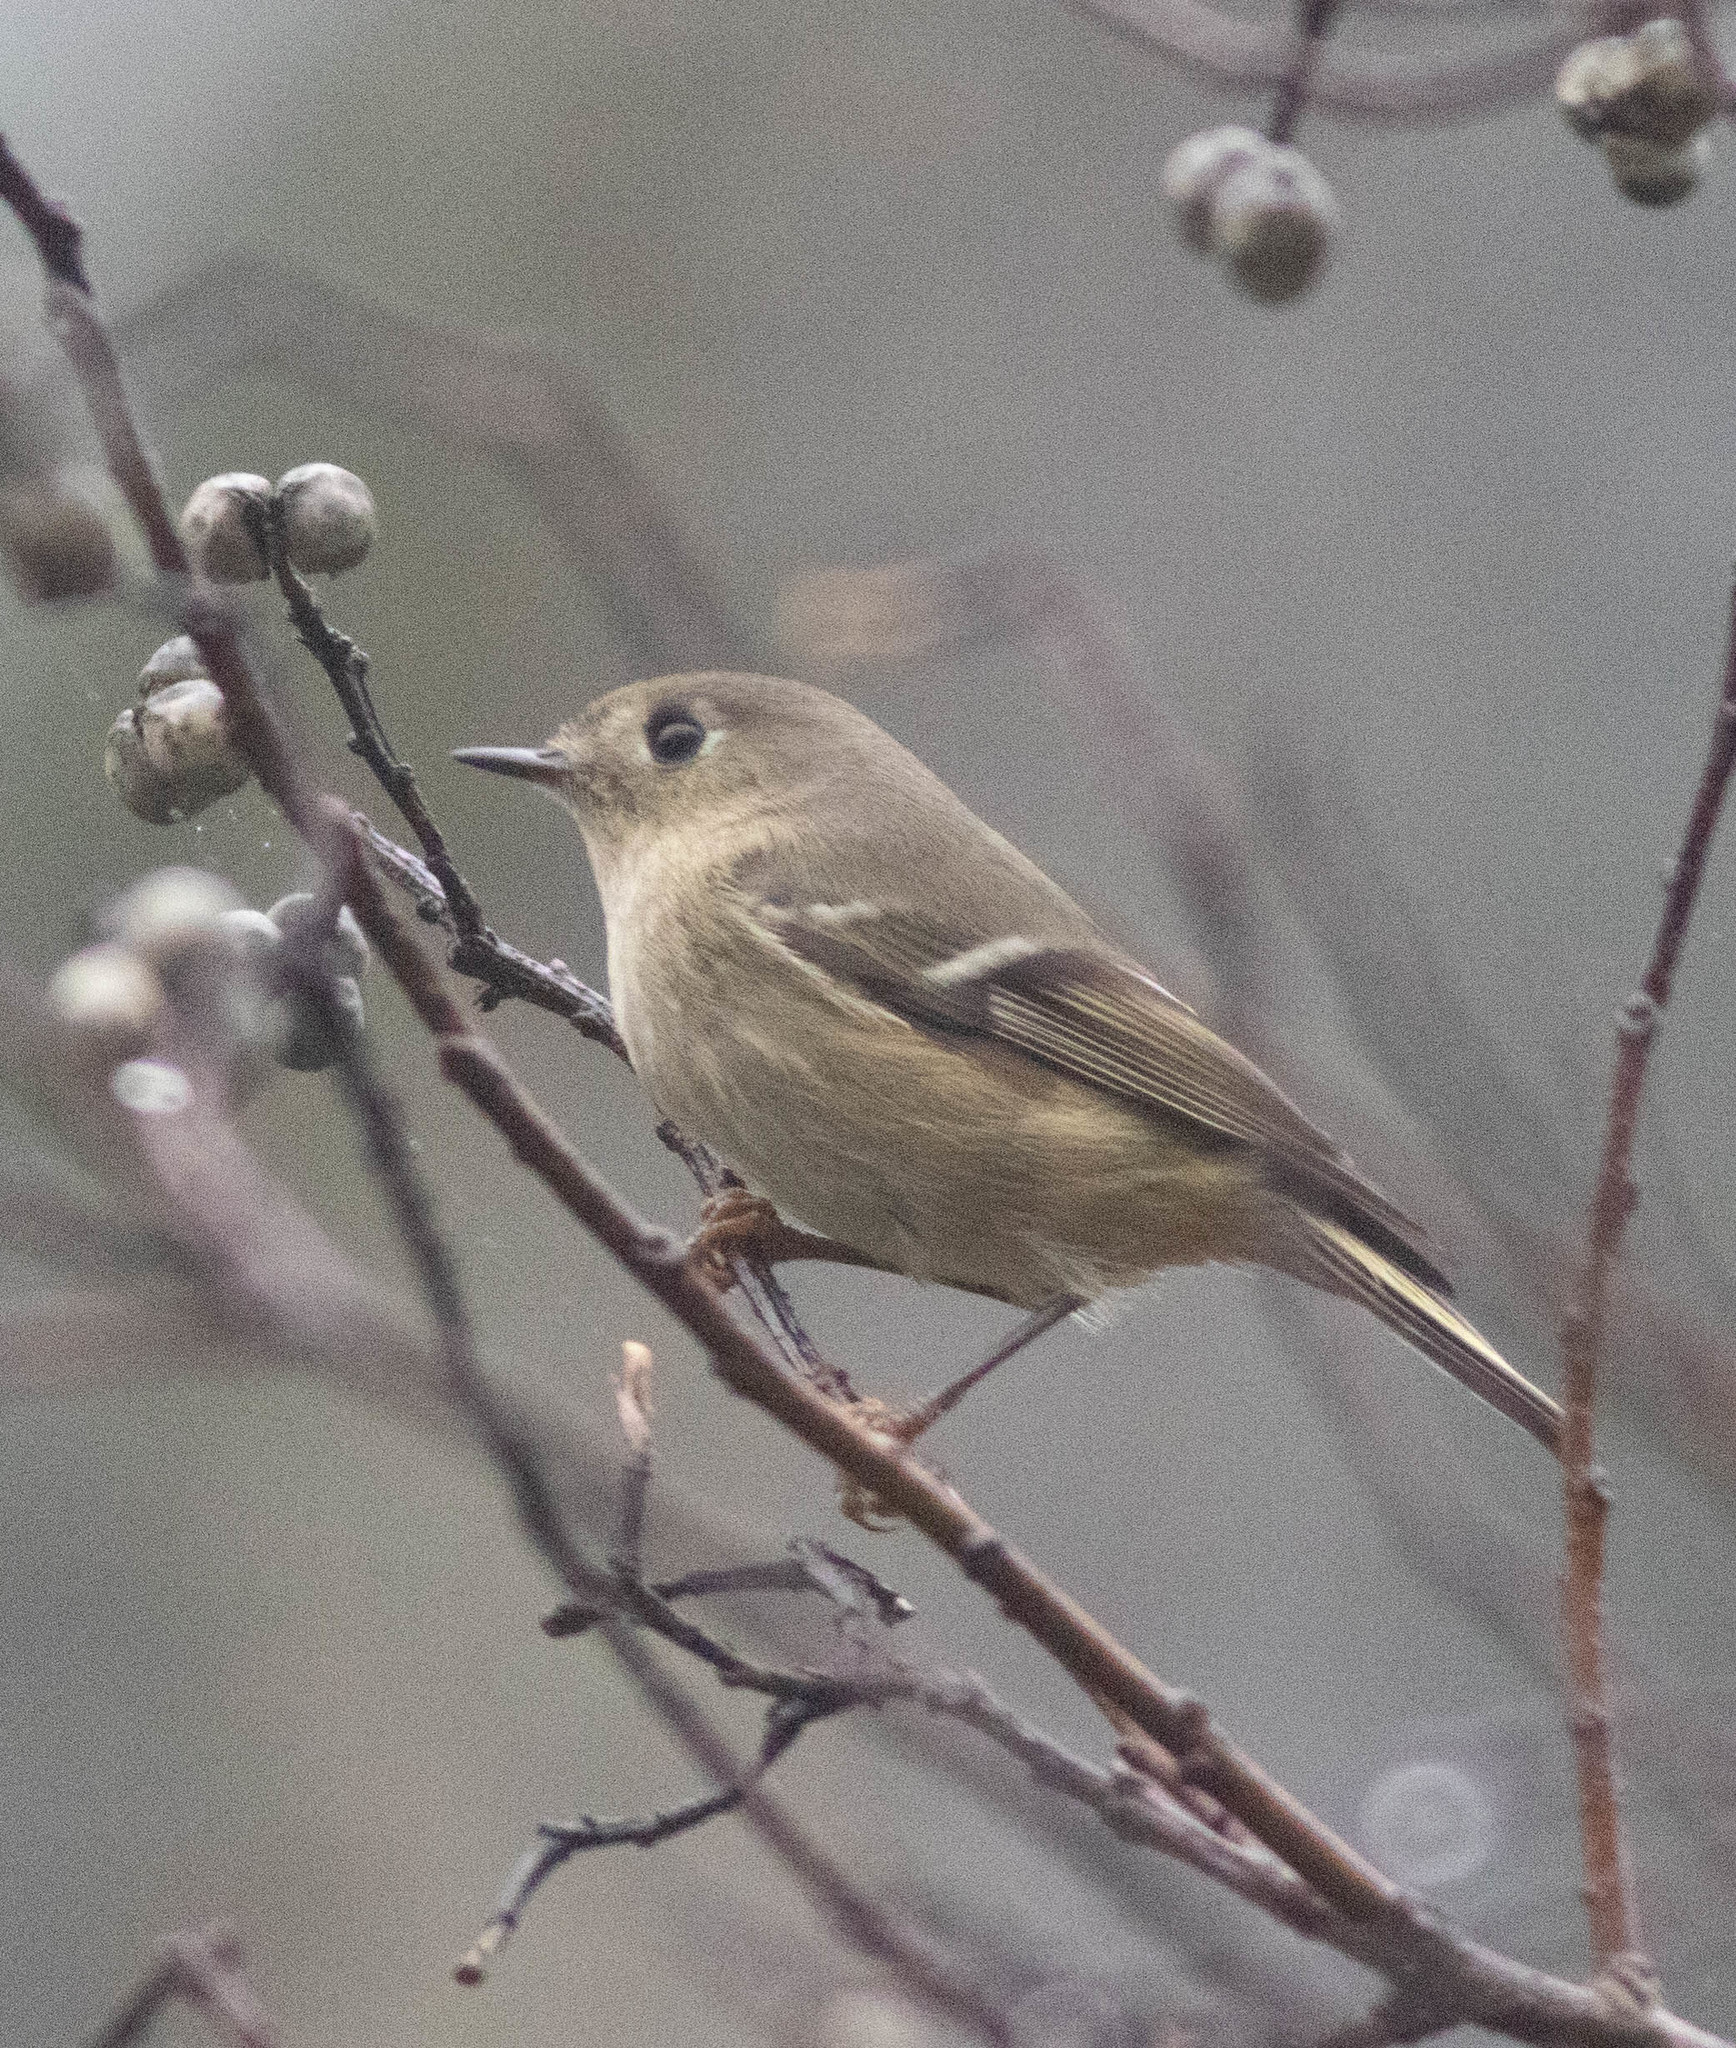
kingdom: Animalia
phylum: Chordata
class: Aves
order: Passeriformes
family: Regulidae
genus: Regulus
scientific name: Regulus calendula
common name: Ruby-crowned kinglet
